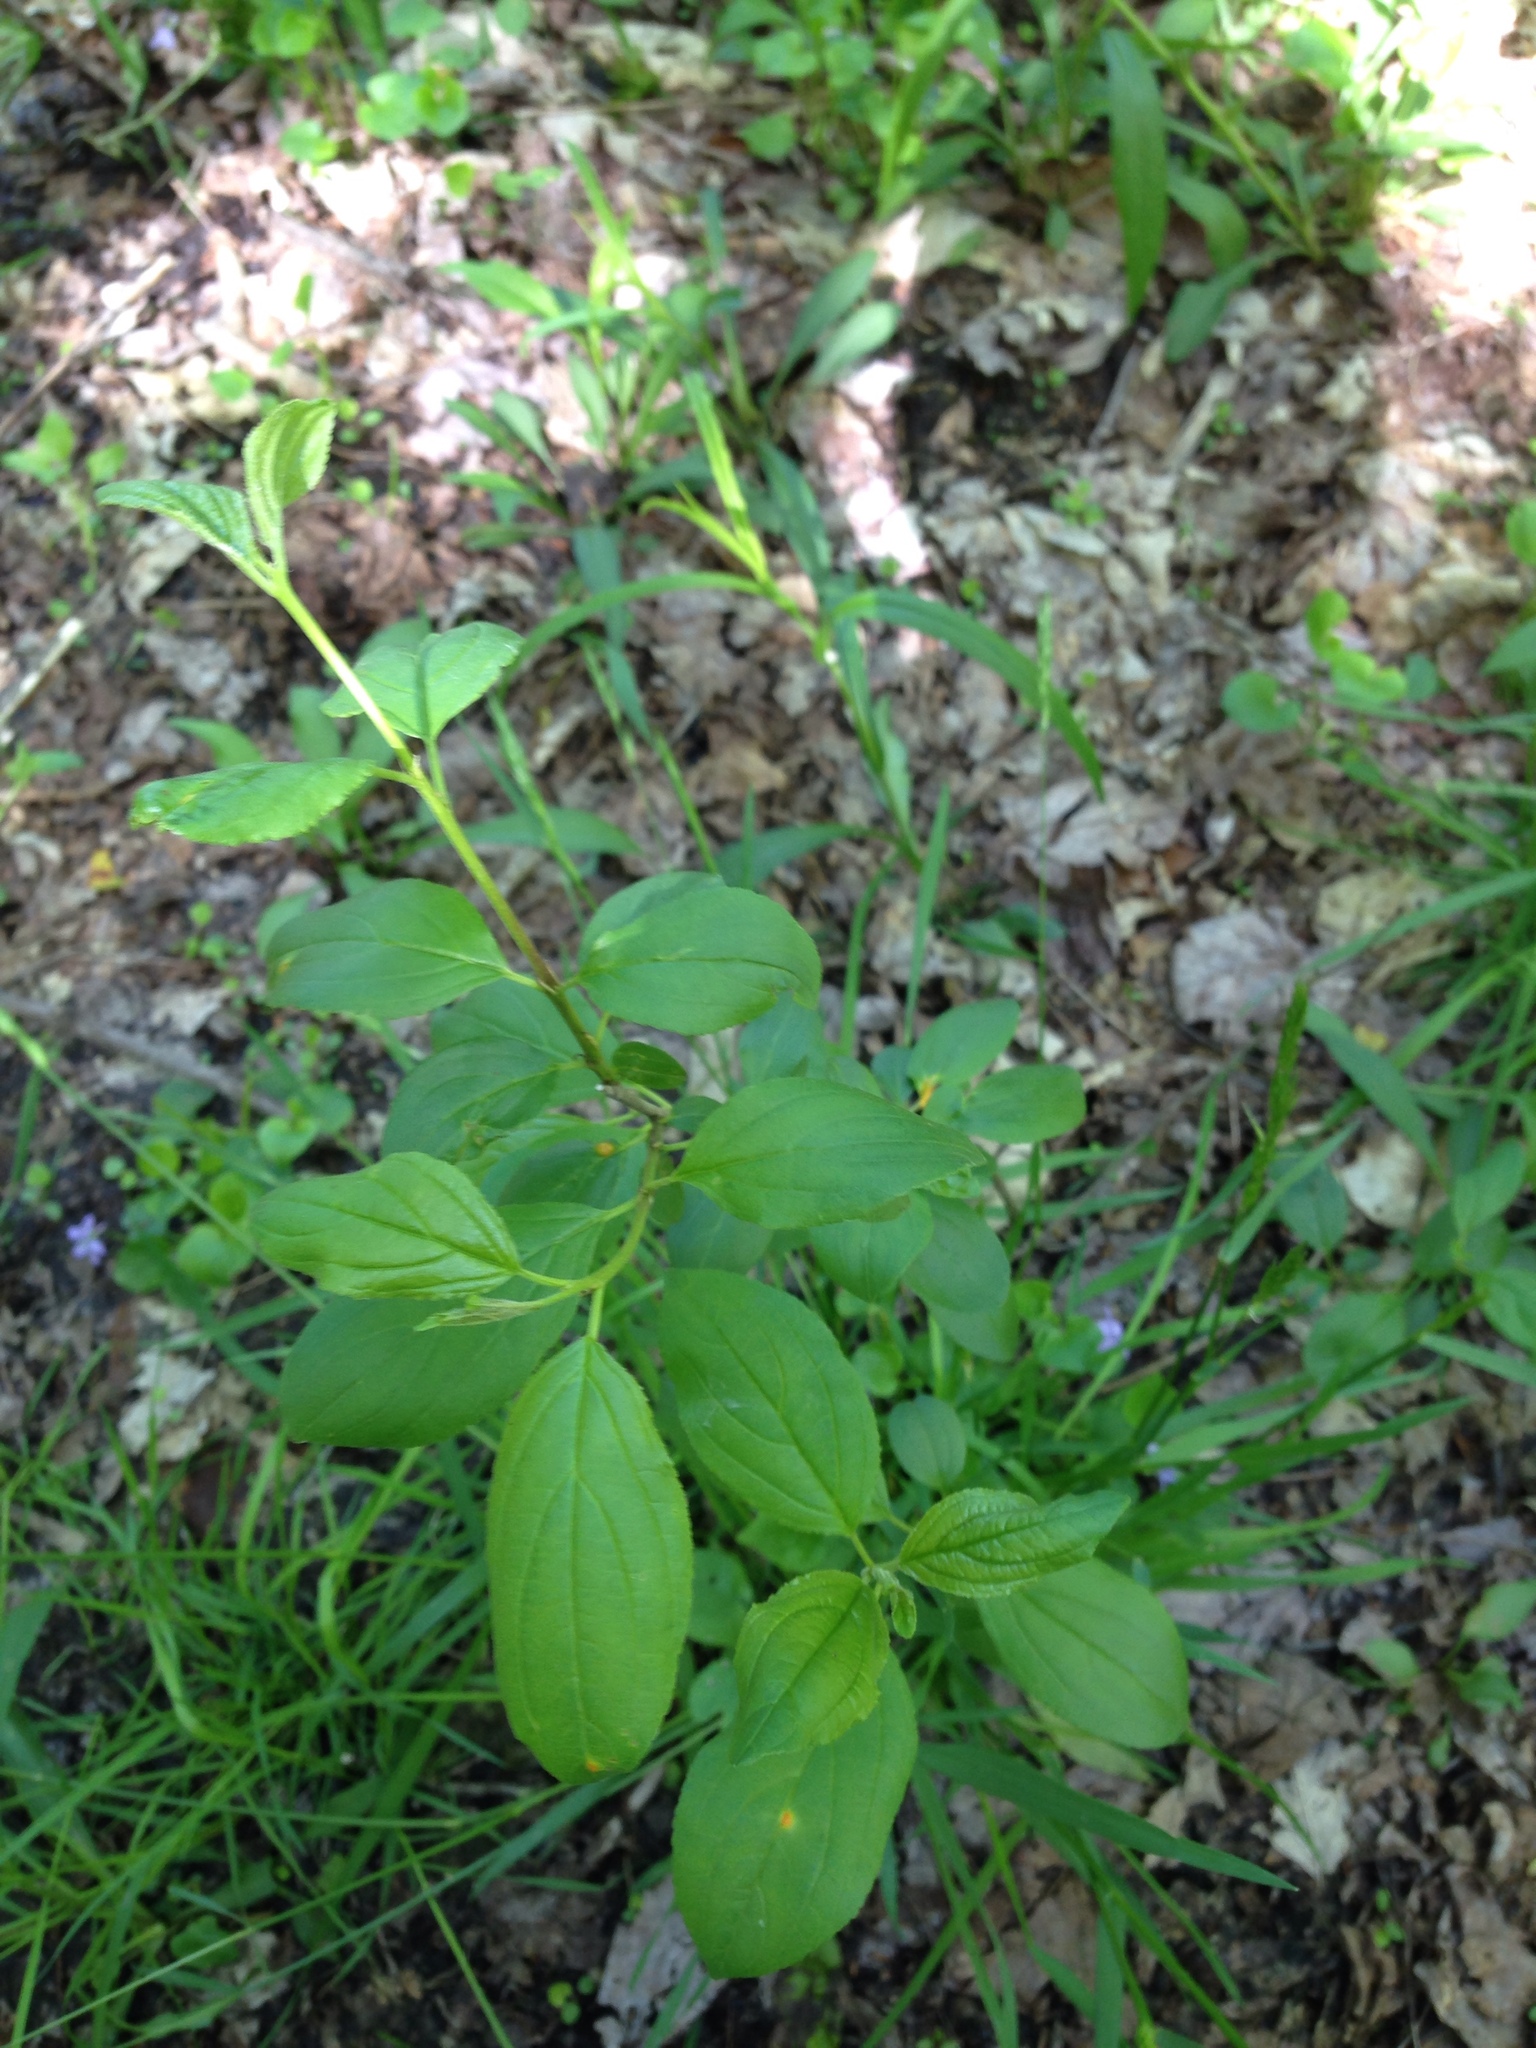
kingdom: Plantae
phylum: Tracheophyta
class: Magnoliopsida
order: Rosales
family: Rhamnaceae
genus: Rhamnus
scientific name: Rhamnus cathartica
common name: Common buckthorn
